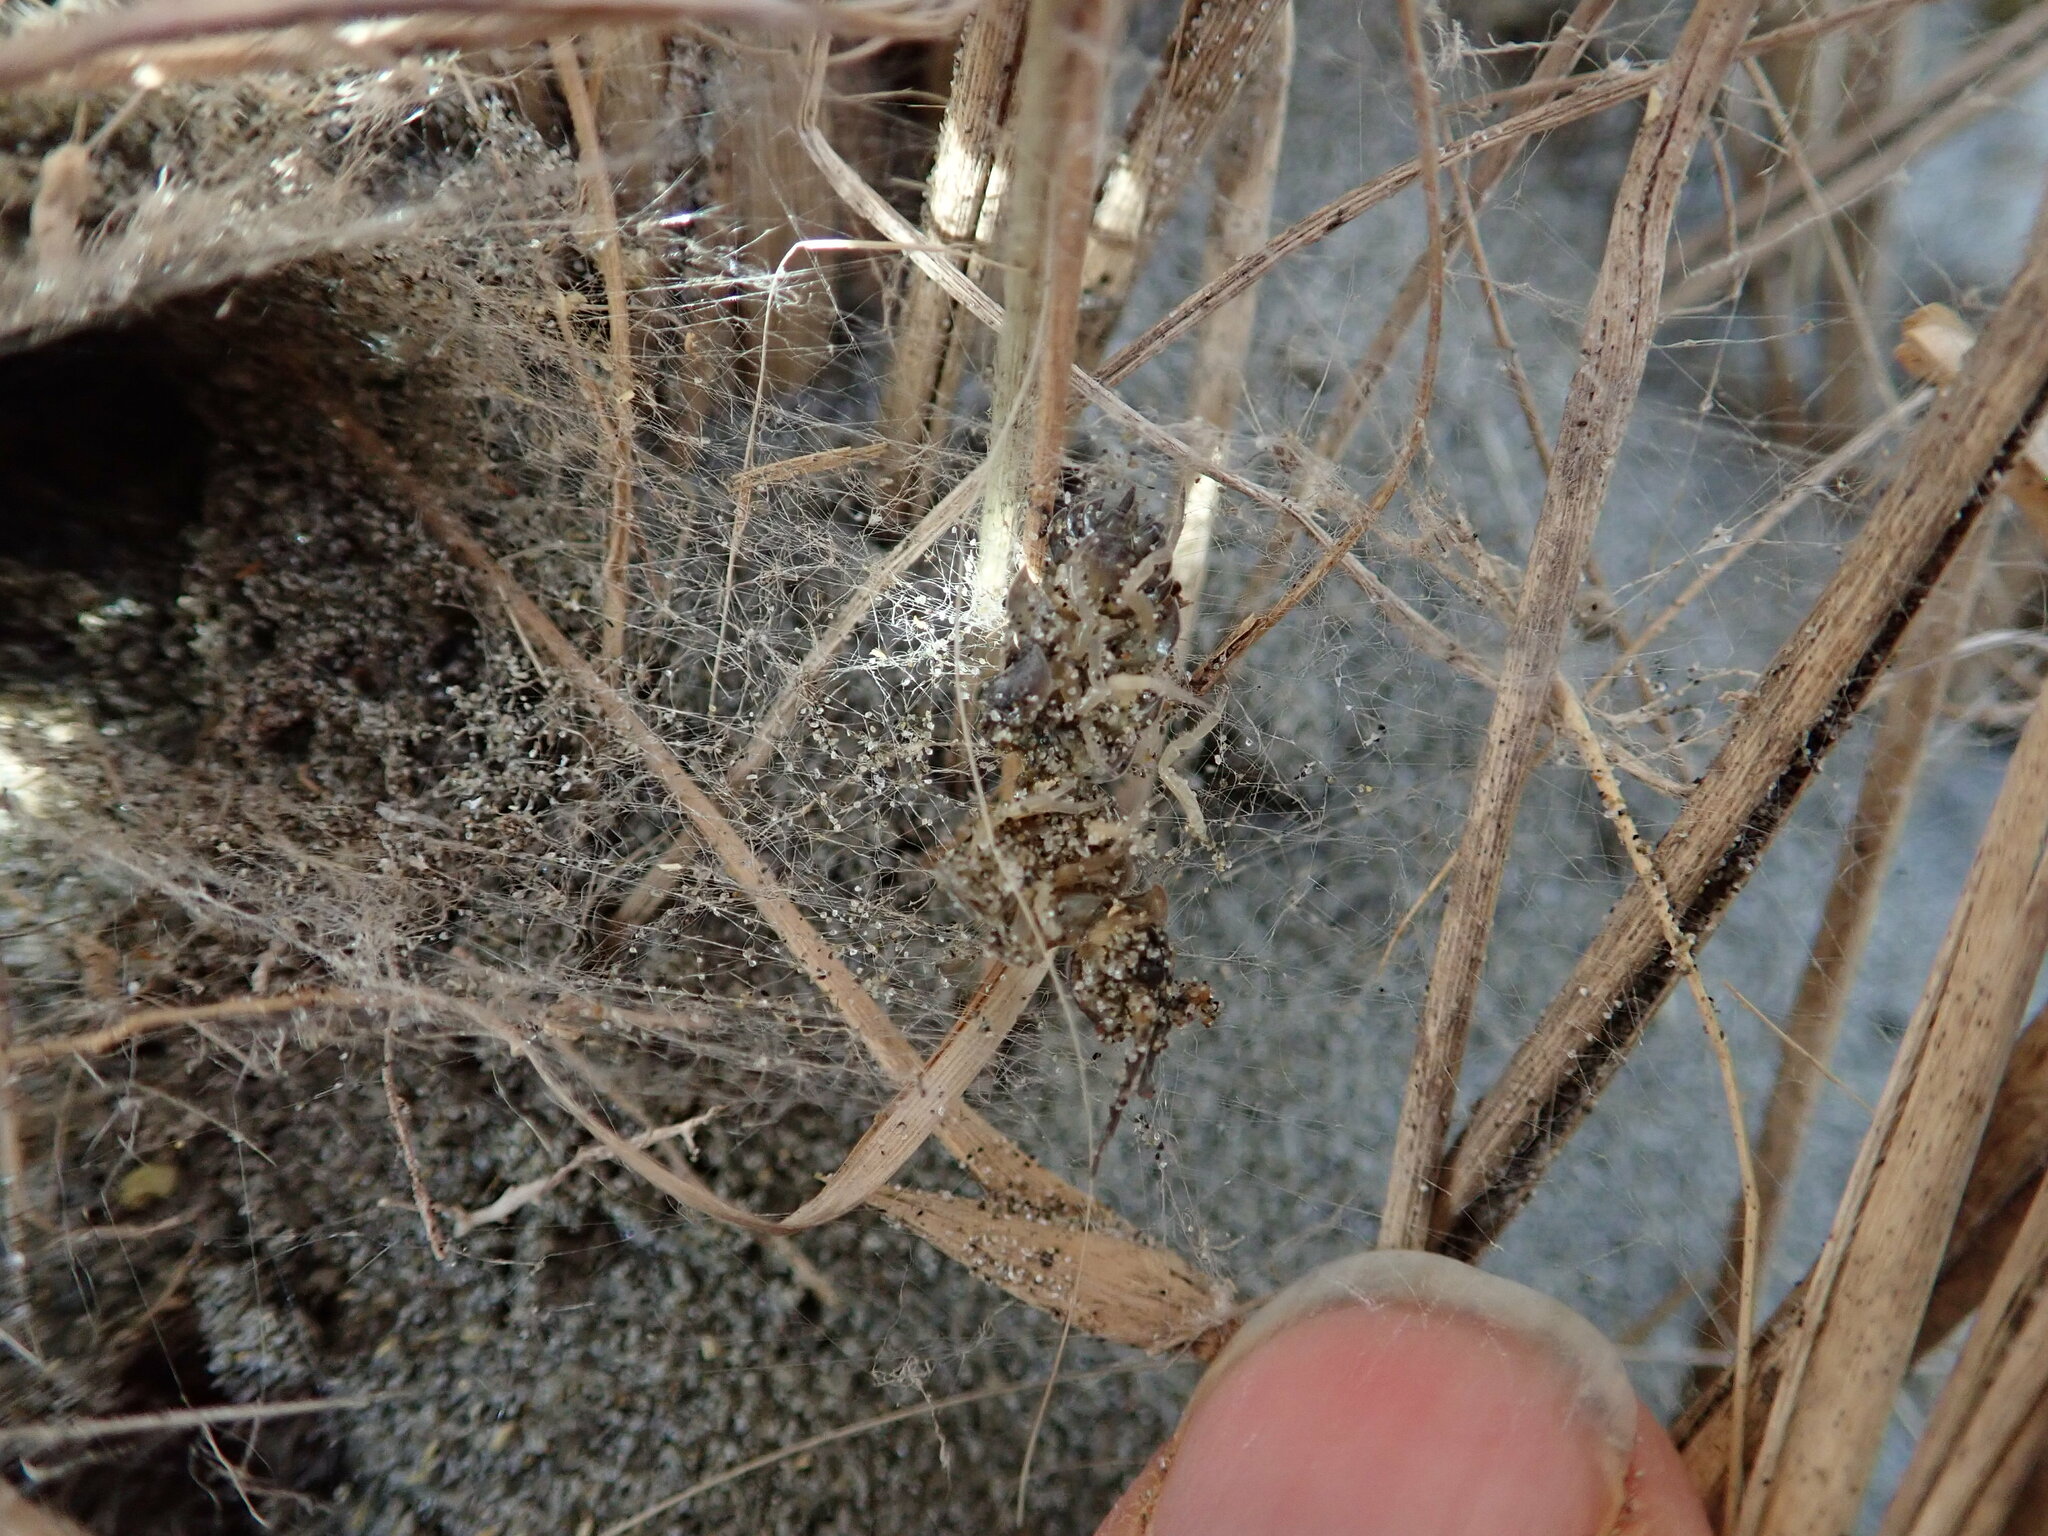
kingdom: Animalia
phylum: Arthropoda
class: Arachnida
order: Araneae
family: Theridiidae
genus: Latrodectus
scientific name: Latrodectus katipo
